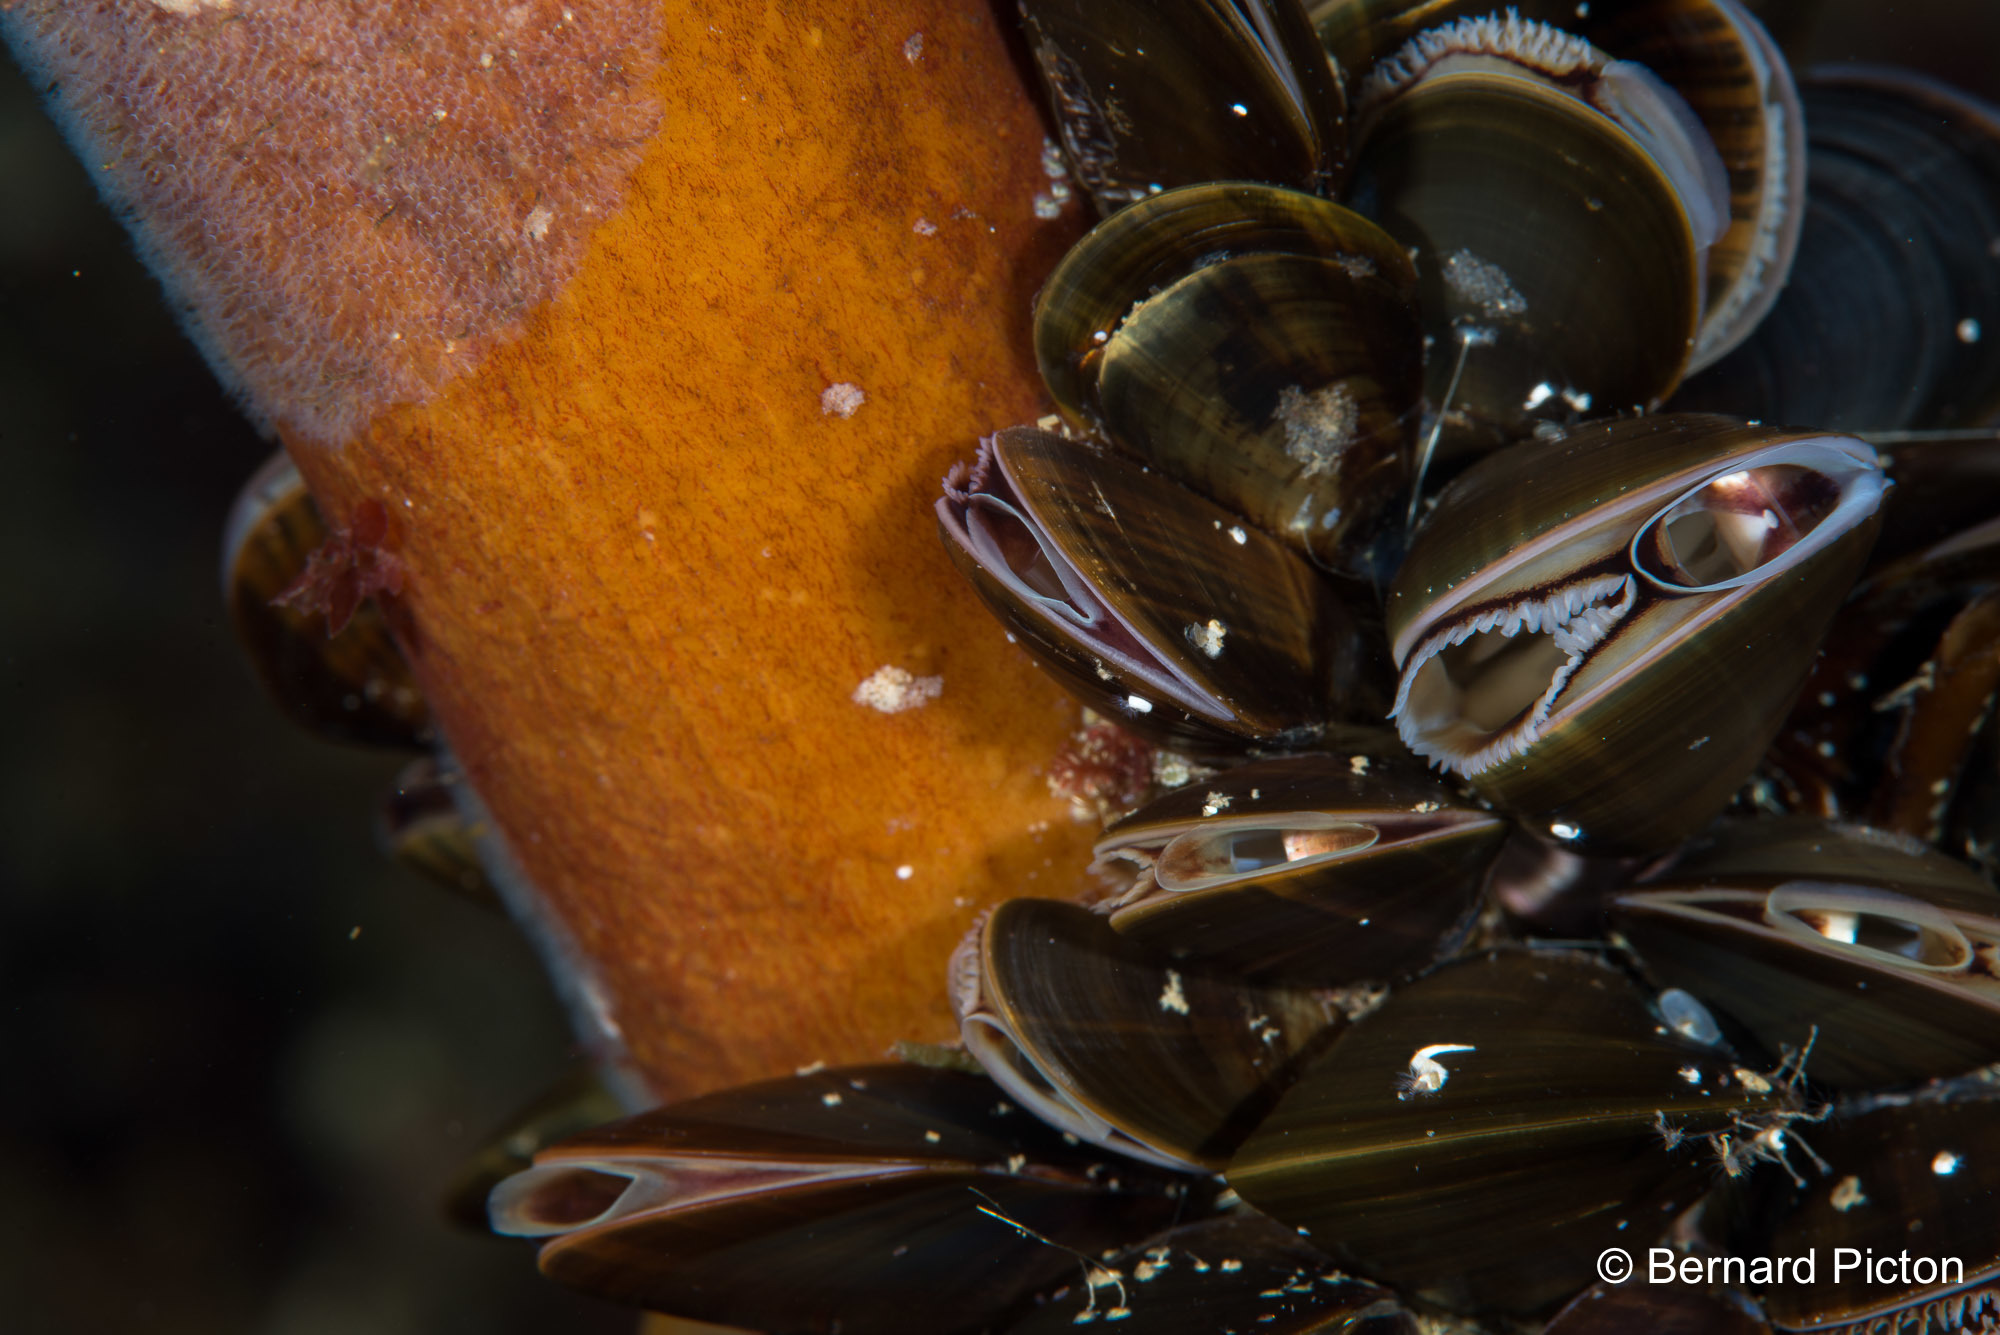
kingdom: Animalia
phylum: Mollusca
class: Bivalvia
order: Mytilida
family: Mytilidae
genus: Mytilus
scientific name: Mytilus edulis
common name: Blue mussel
